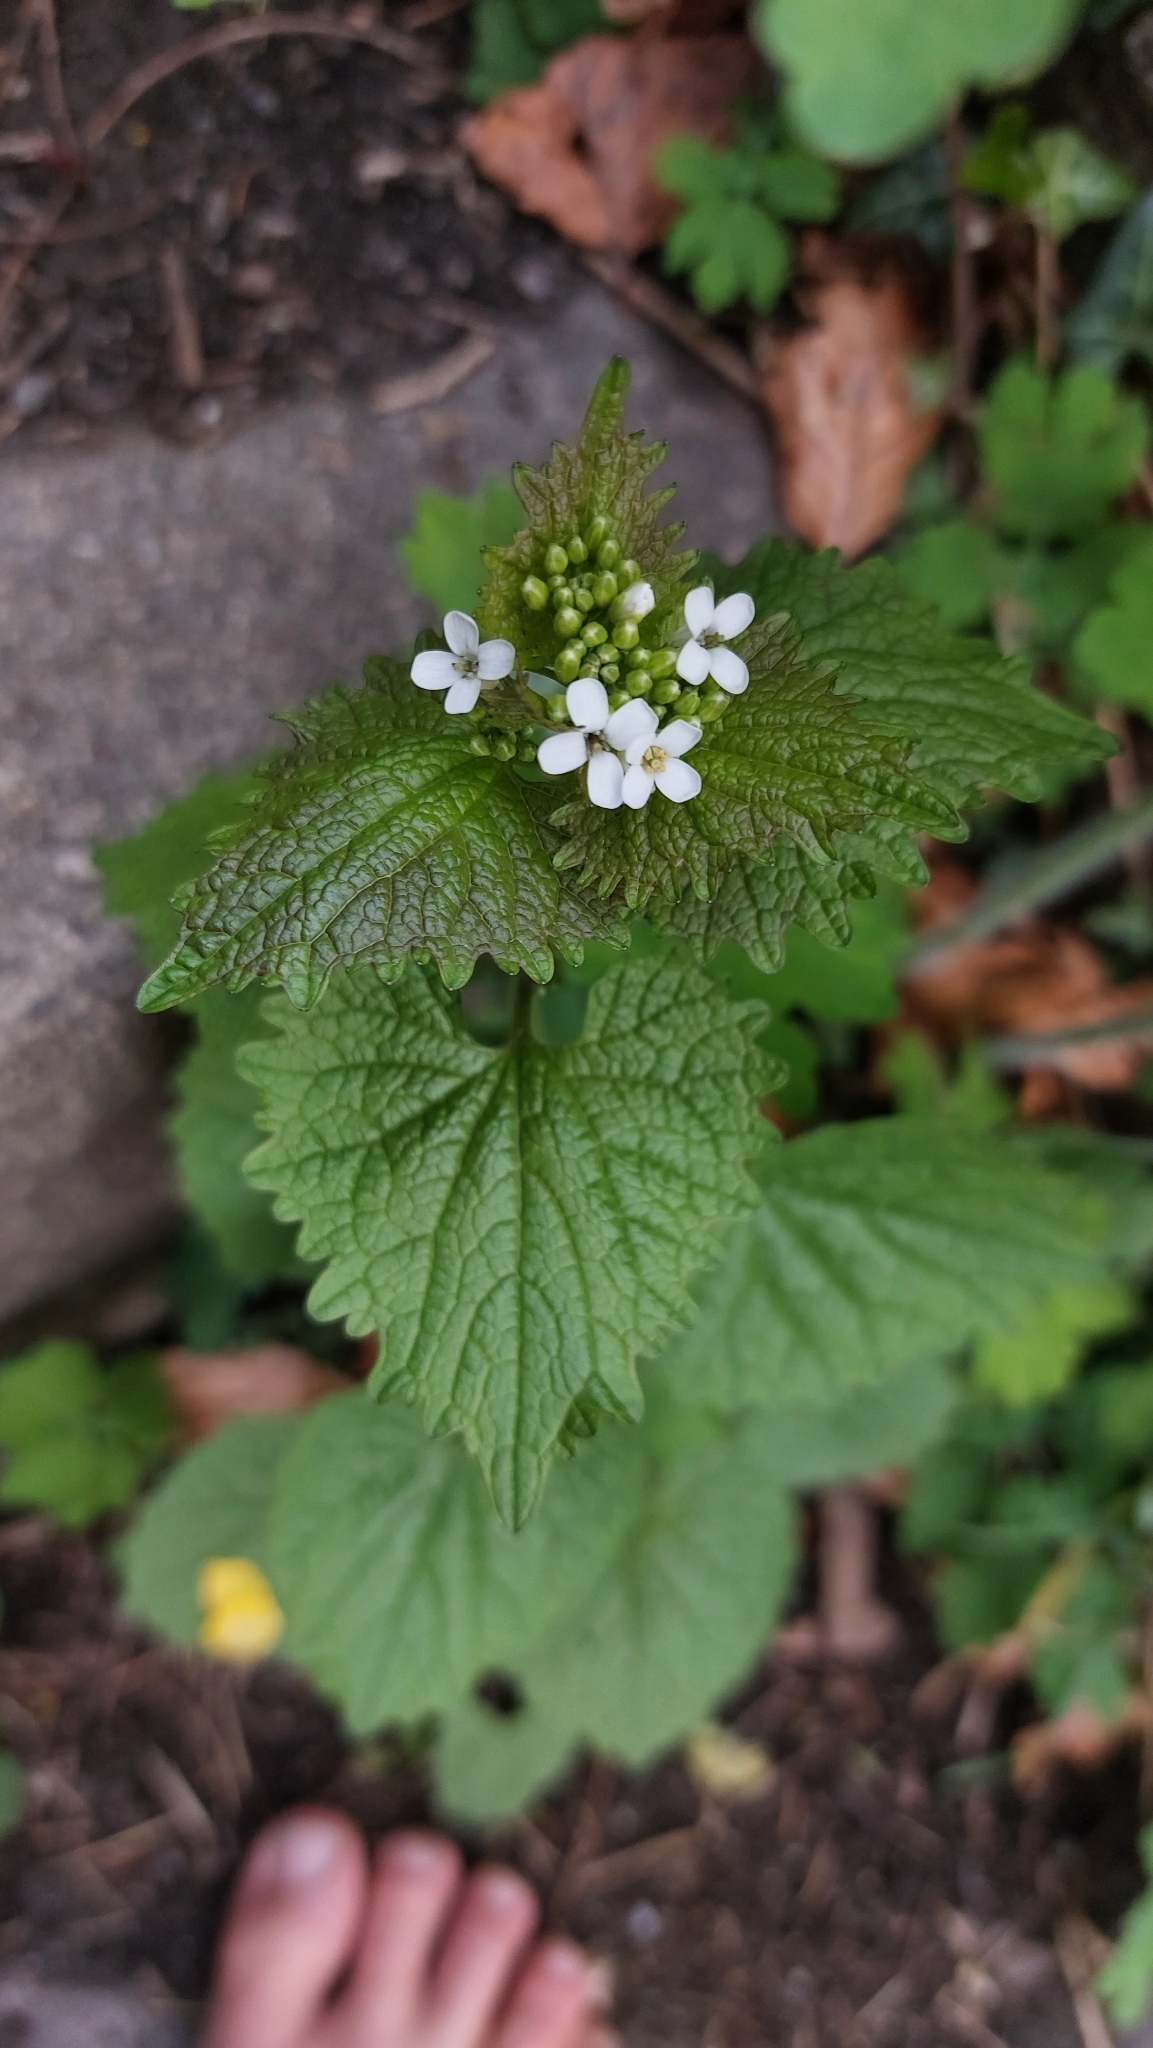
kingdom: Plantae
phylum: Tracheophyta
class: Magnoliopsida
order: Brassicales
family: Brassicaceae
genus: Alliaria
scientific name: Alliaria petiolata
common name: Garlic mustard
